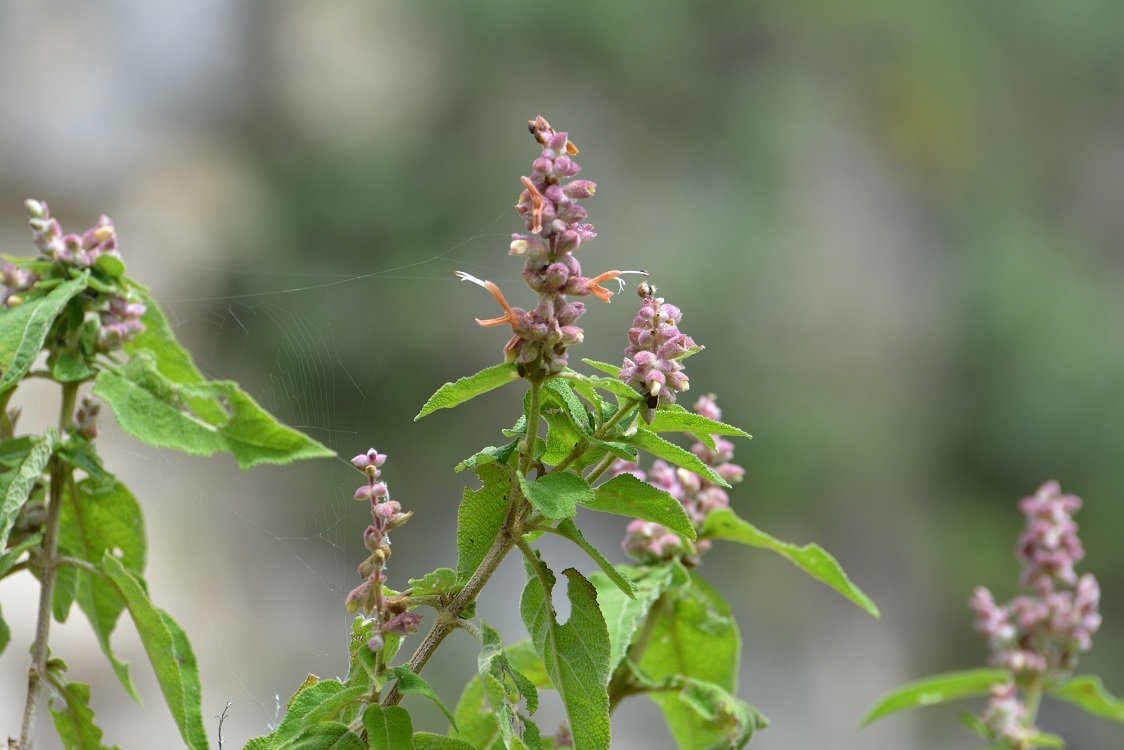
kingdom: Plantae
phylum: Tracheophyta
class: Magnoliopsida
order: Lamiales
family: Lamiaceae
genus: Salvia
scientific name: Salvia lasiantha
